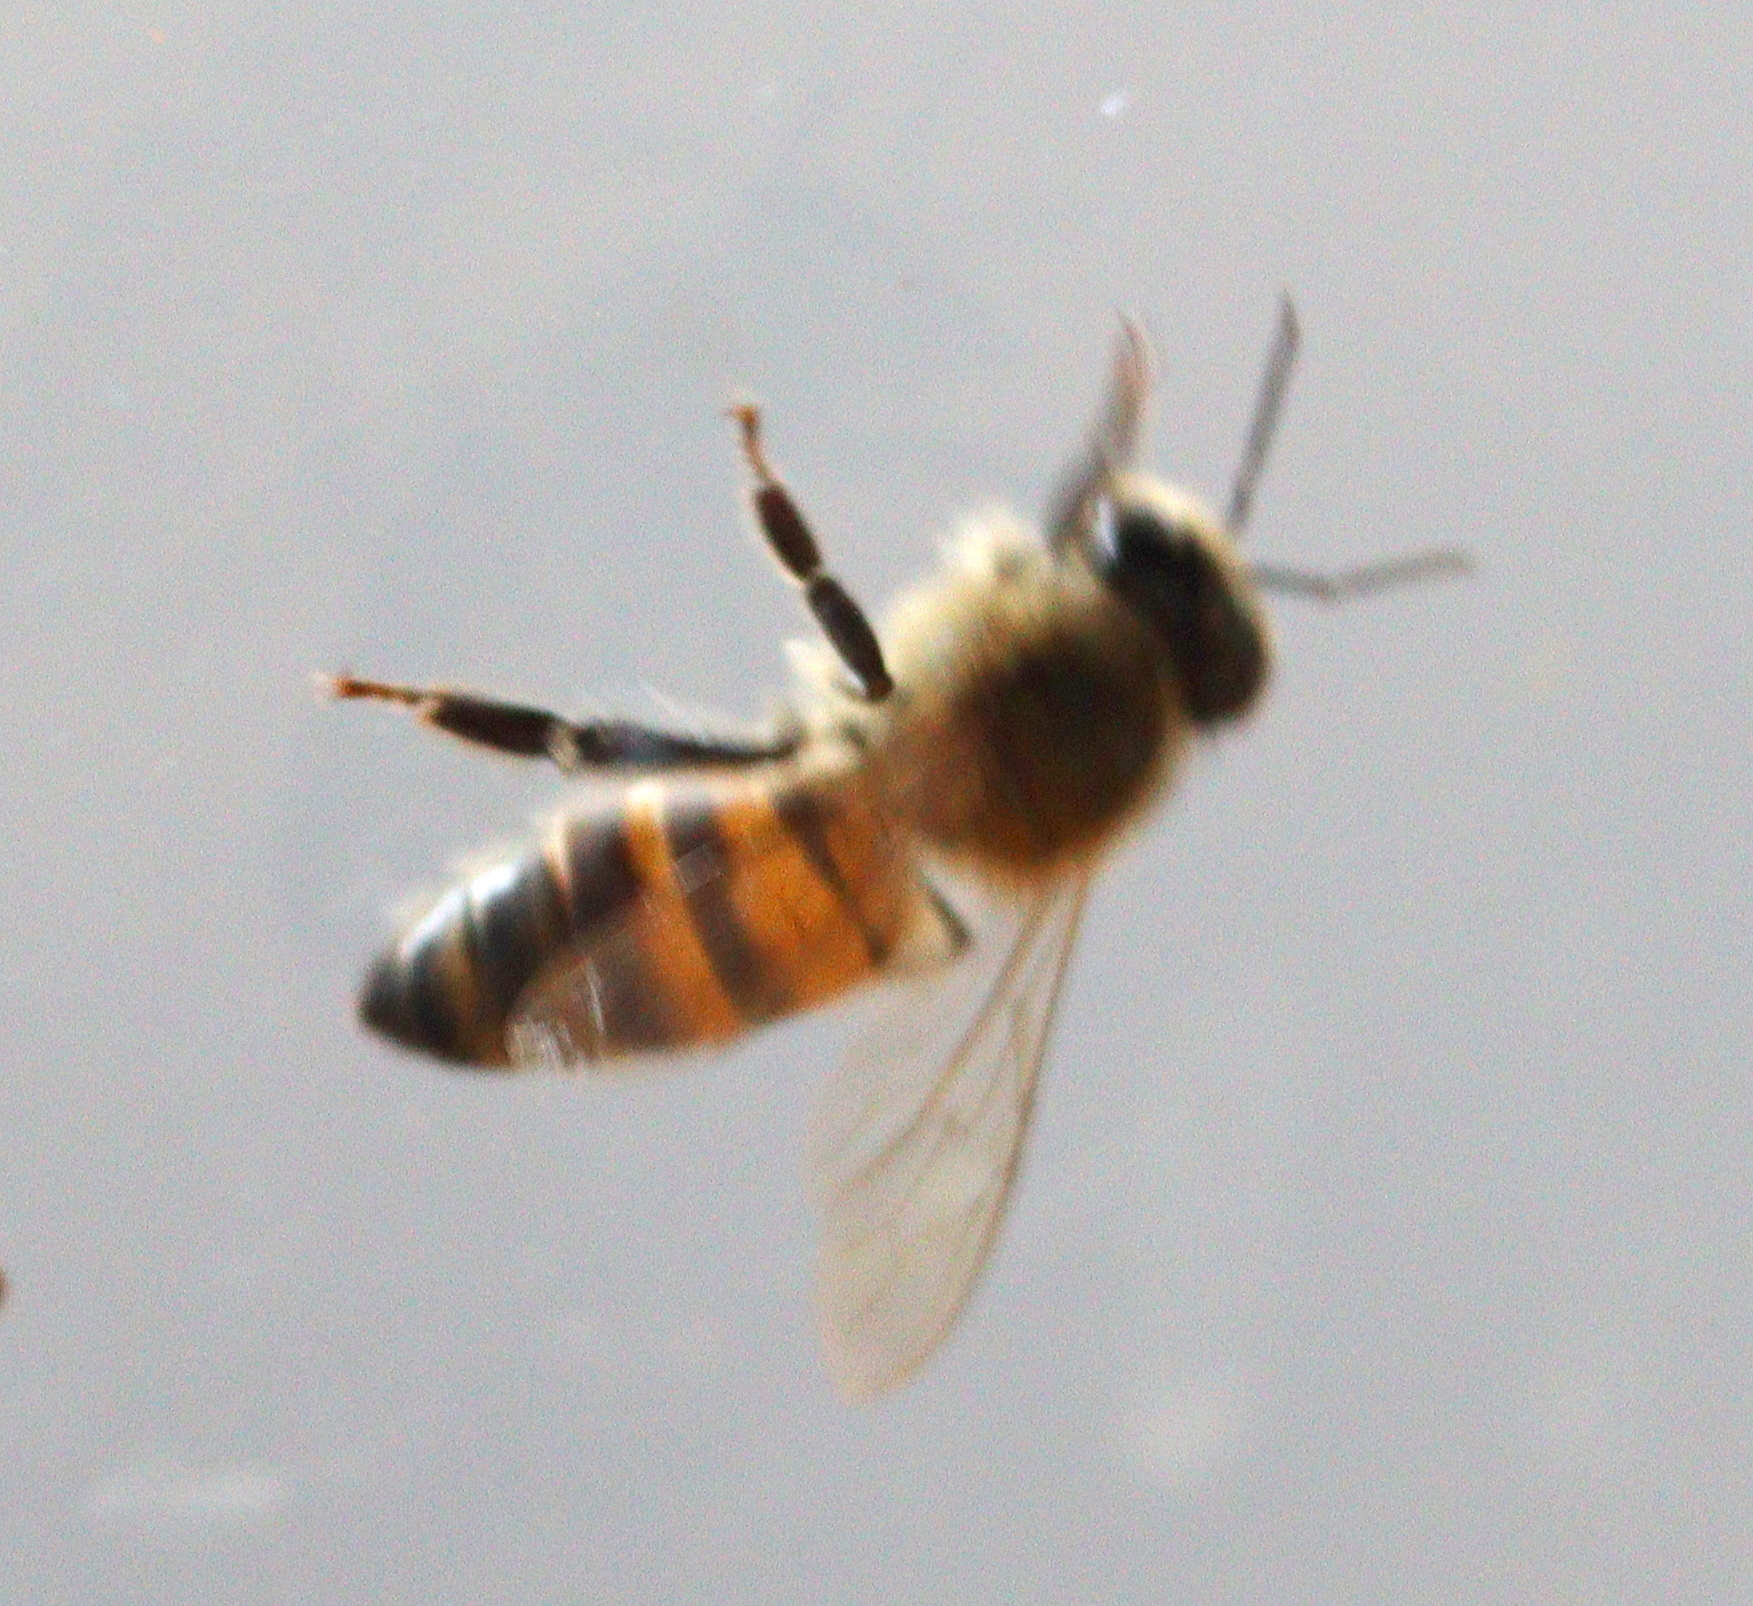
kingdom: Animalia
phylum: Arthropoda
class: Insecta
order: Hymenoptera
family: Apidae
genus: Apis
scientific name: Apis mellifera
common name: Honey bee
